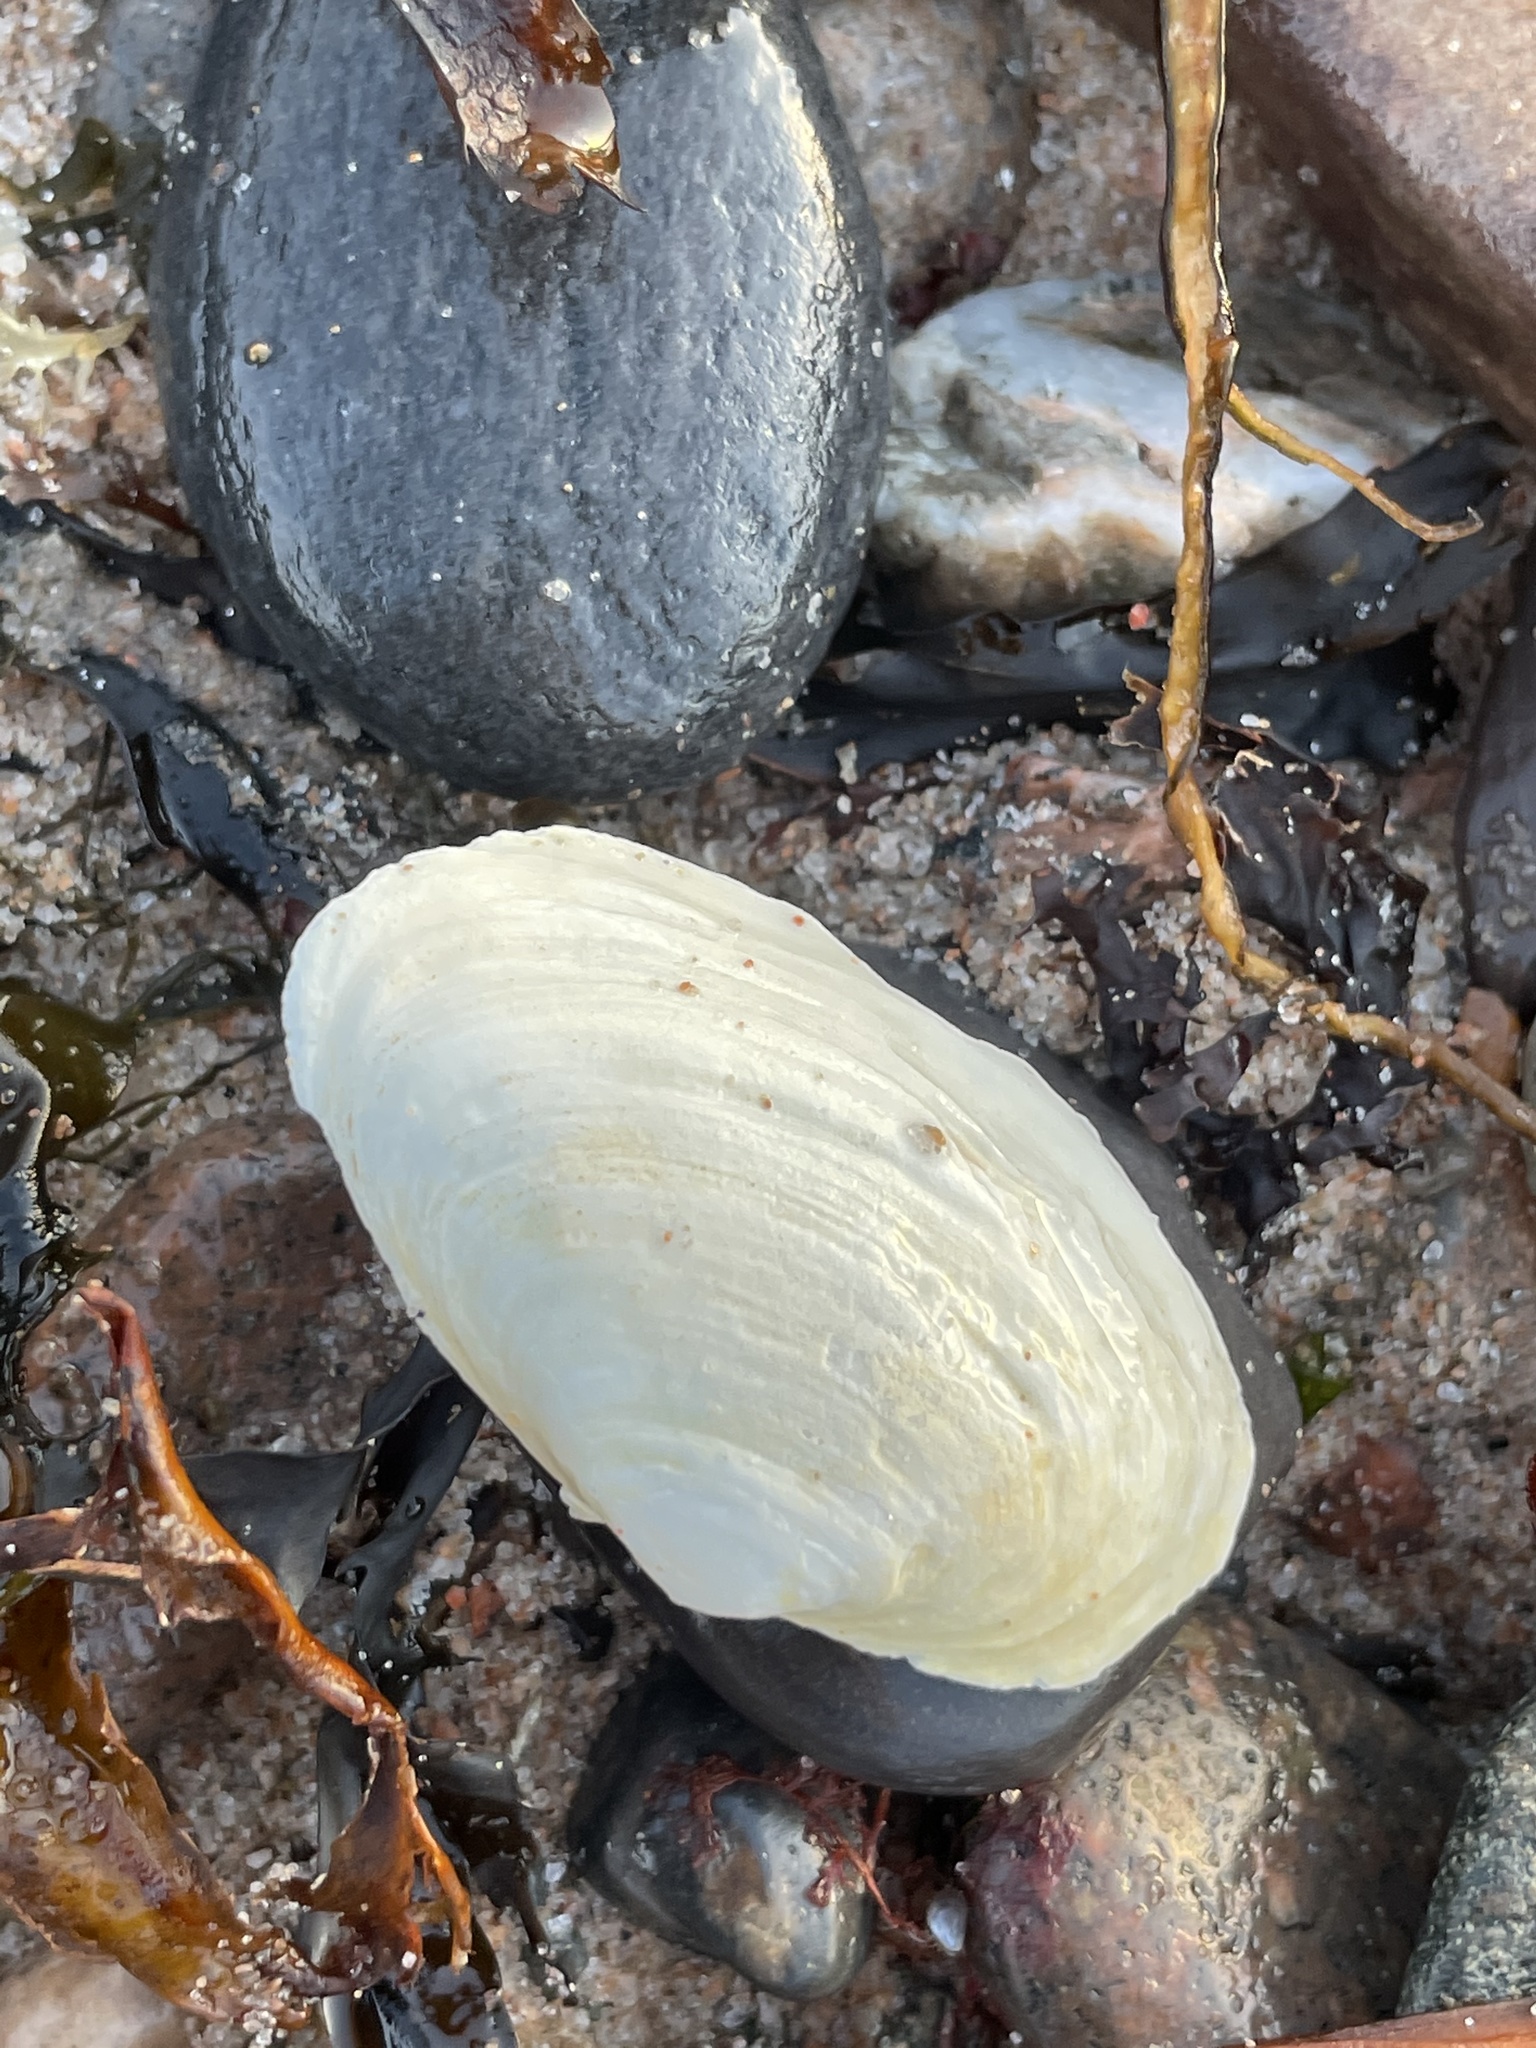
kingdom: Animalia
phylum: Mollusca
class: Bivalvia
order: Myida
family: Myidae
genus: Mya
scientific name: Mya arenaria
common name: Soft-shelled clam
